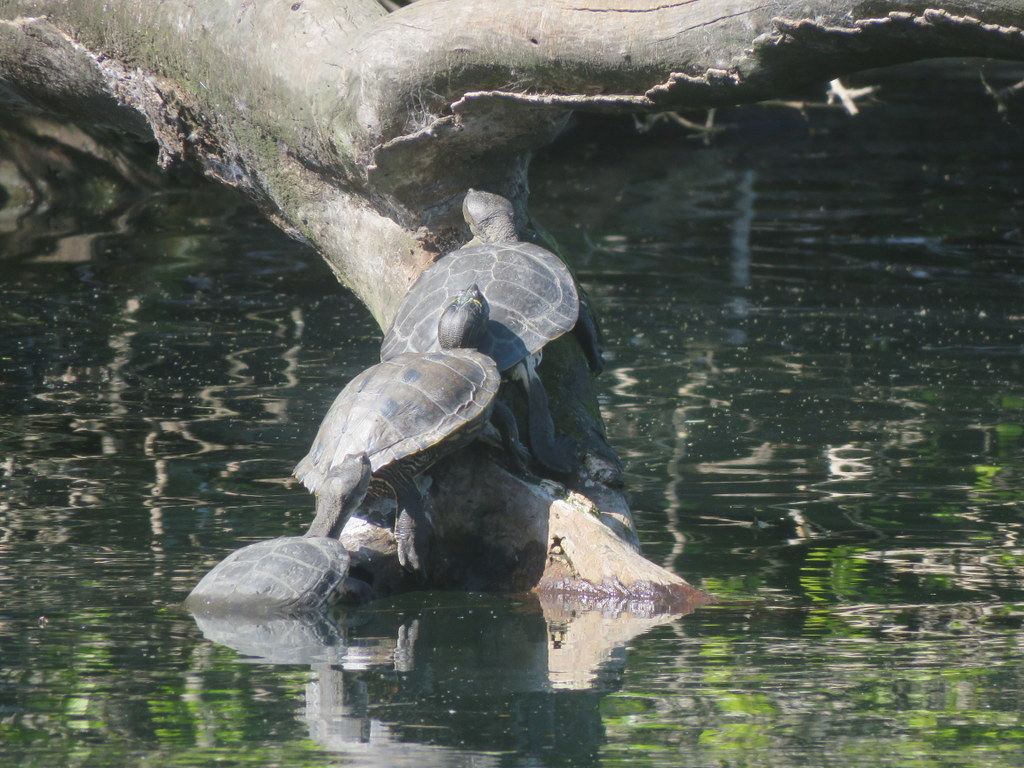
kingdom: Animalia
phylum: Chordata
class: Testudines
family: Chelidae
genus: Phrynops
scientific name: Phrynops hilarii
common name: Side-necked turtle of saint hillaire
